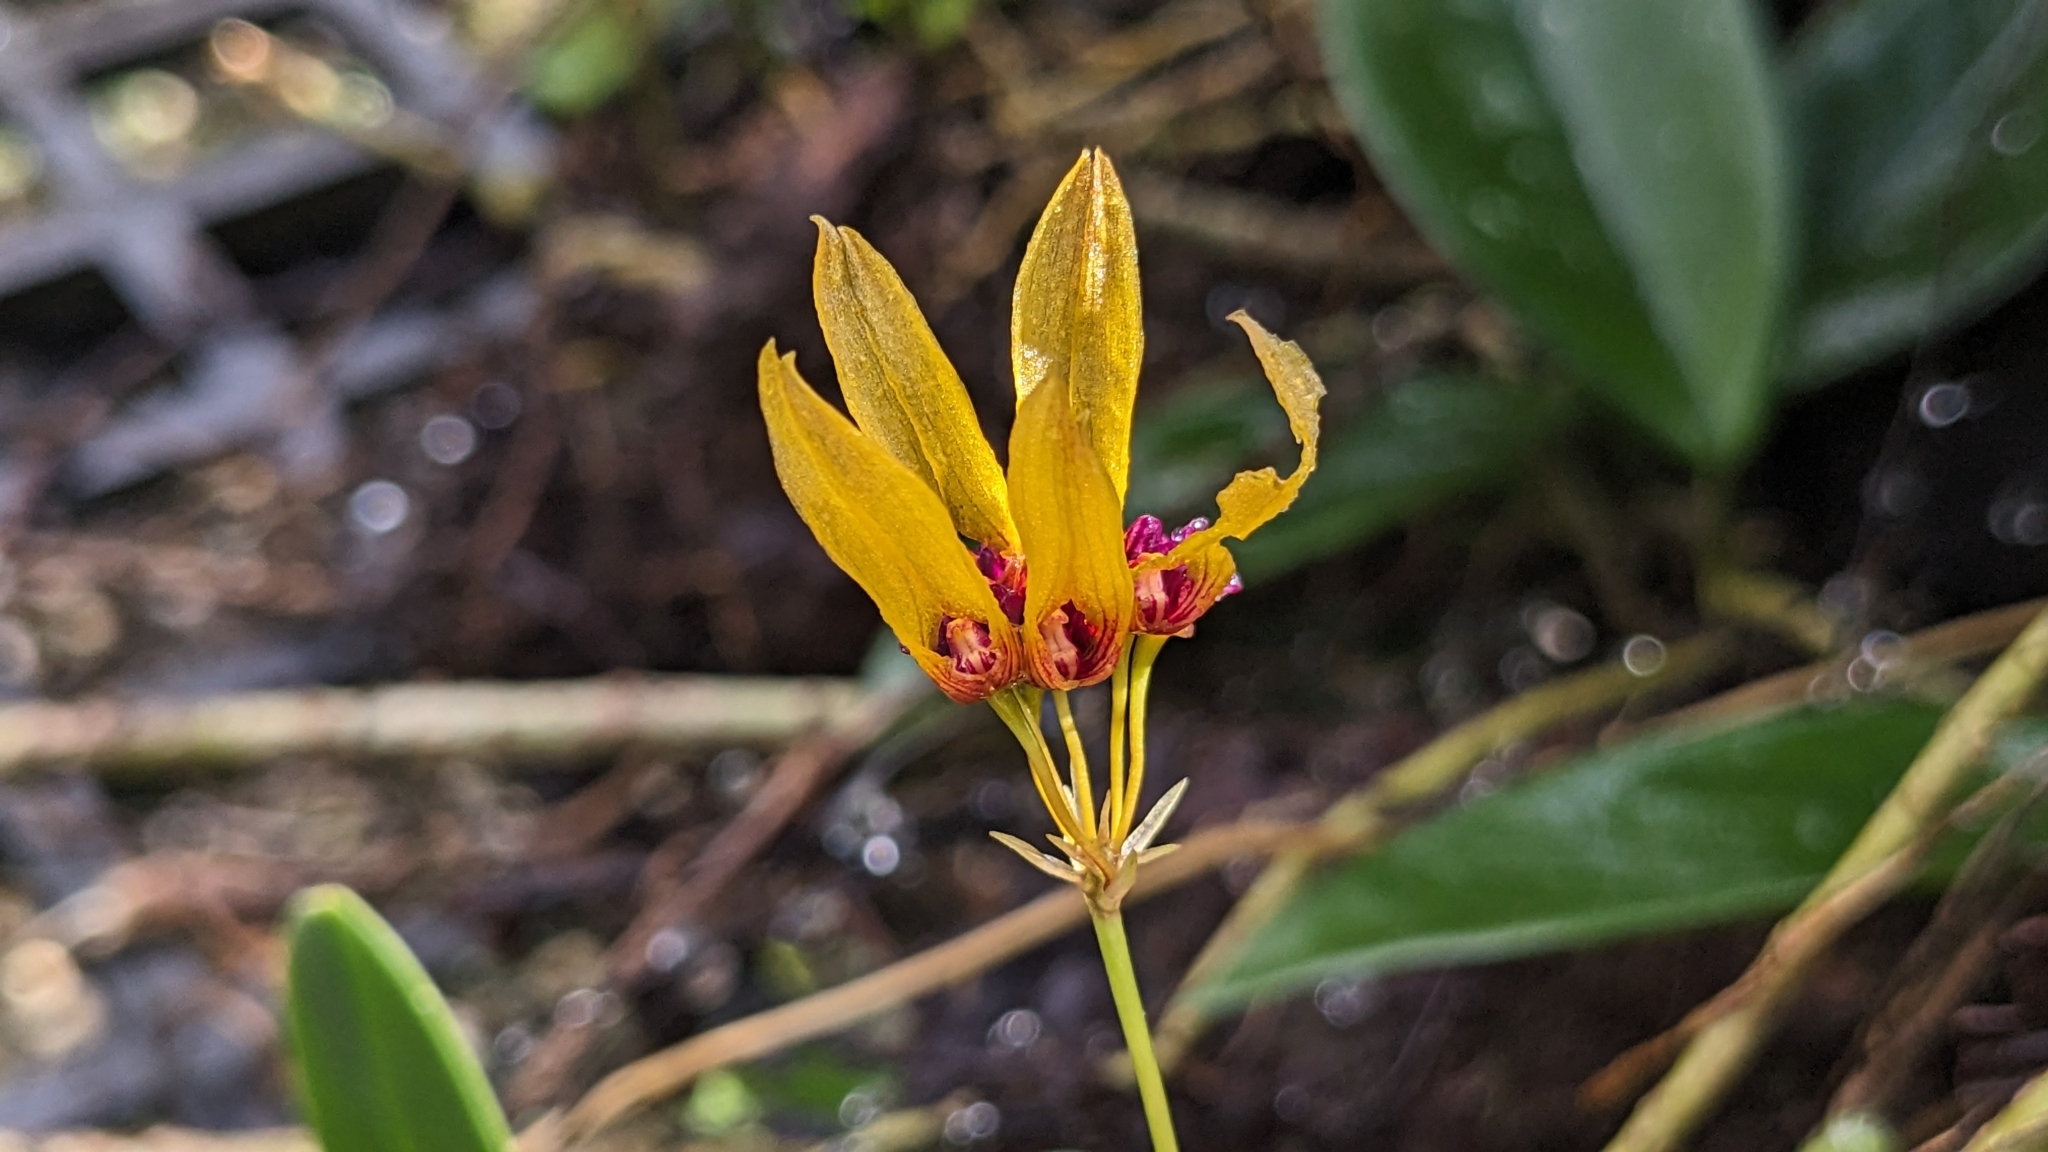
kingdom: Plantae
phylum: Tracheophyta
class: Liliopsida
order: Asparagales
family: Orchidaceae
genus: Bulbophyllum
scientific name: Bulbophyllum retusiusculum
